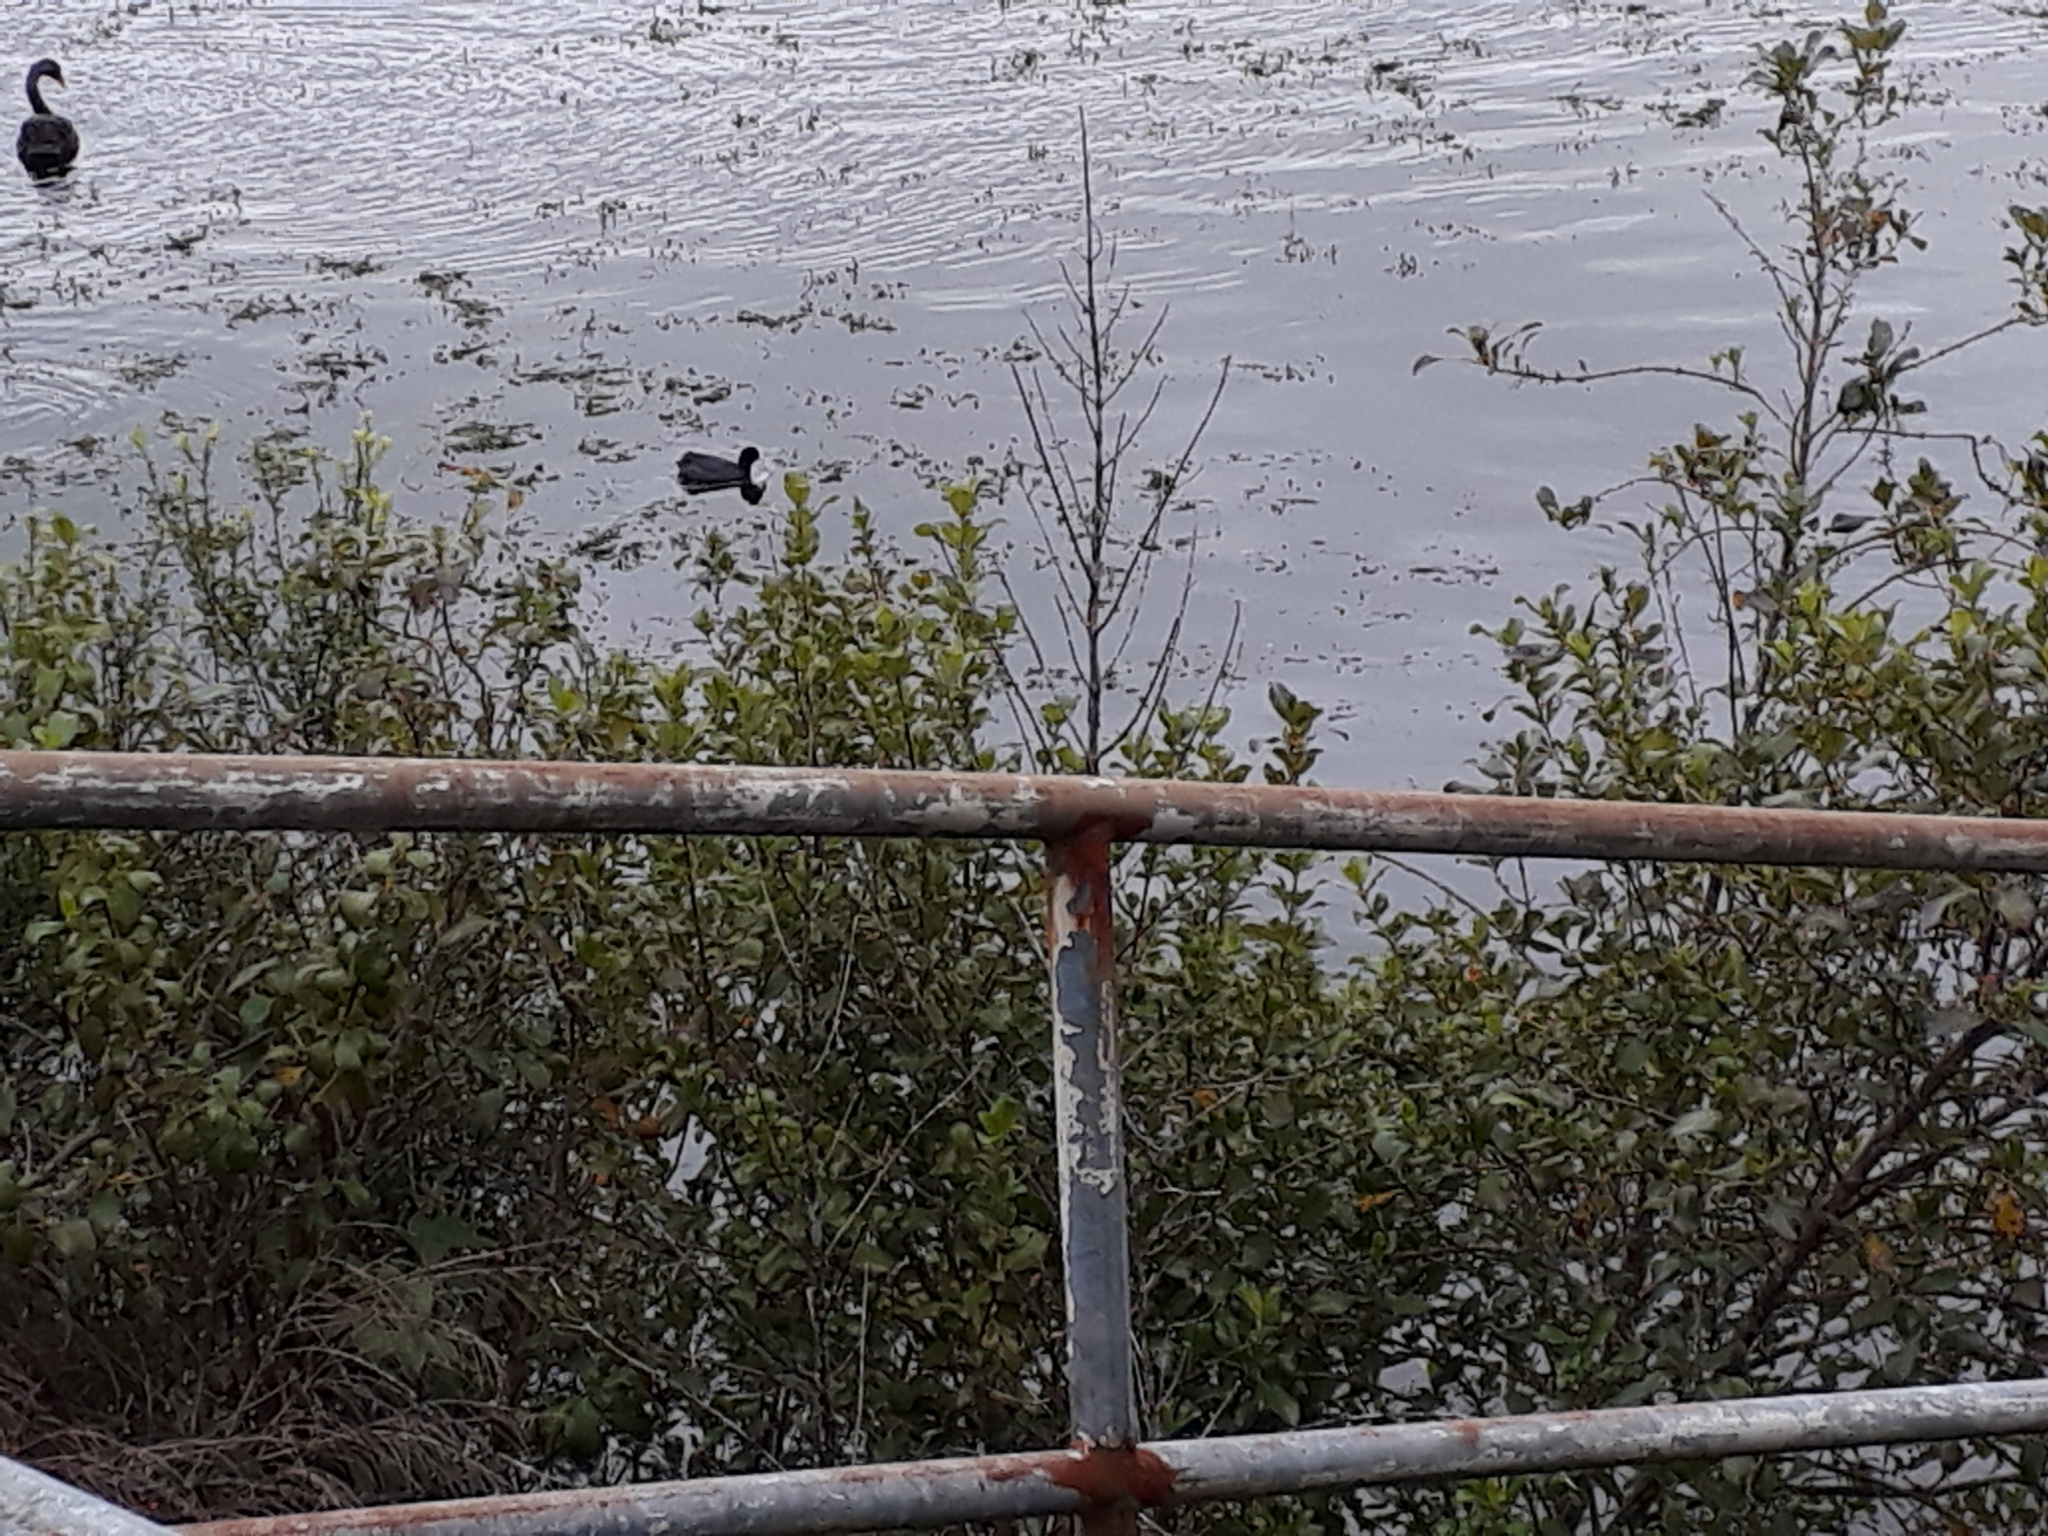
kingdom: Animalia
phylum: Chordata
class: Aves
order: Gruiformes
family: Rallidae
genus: Fulica
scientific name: Fulica atra
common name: Eurasian coot
